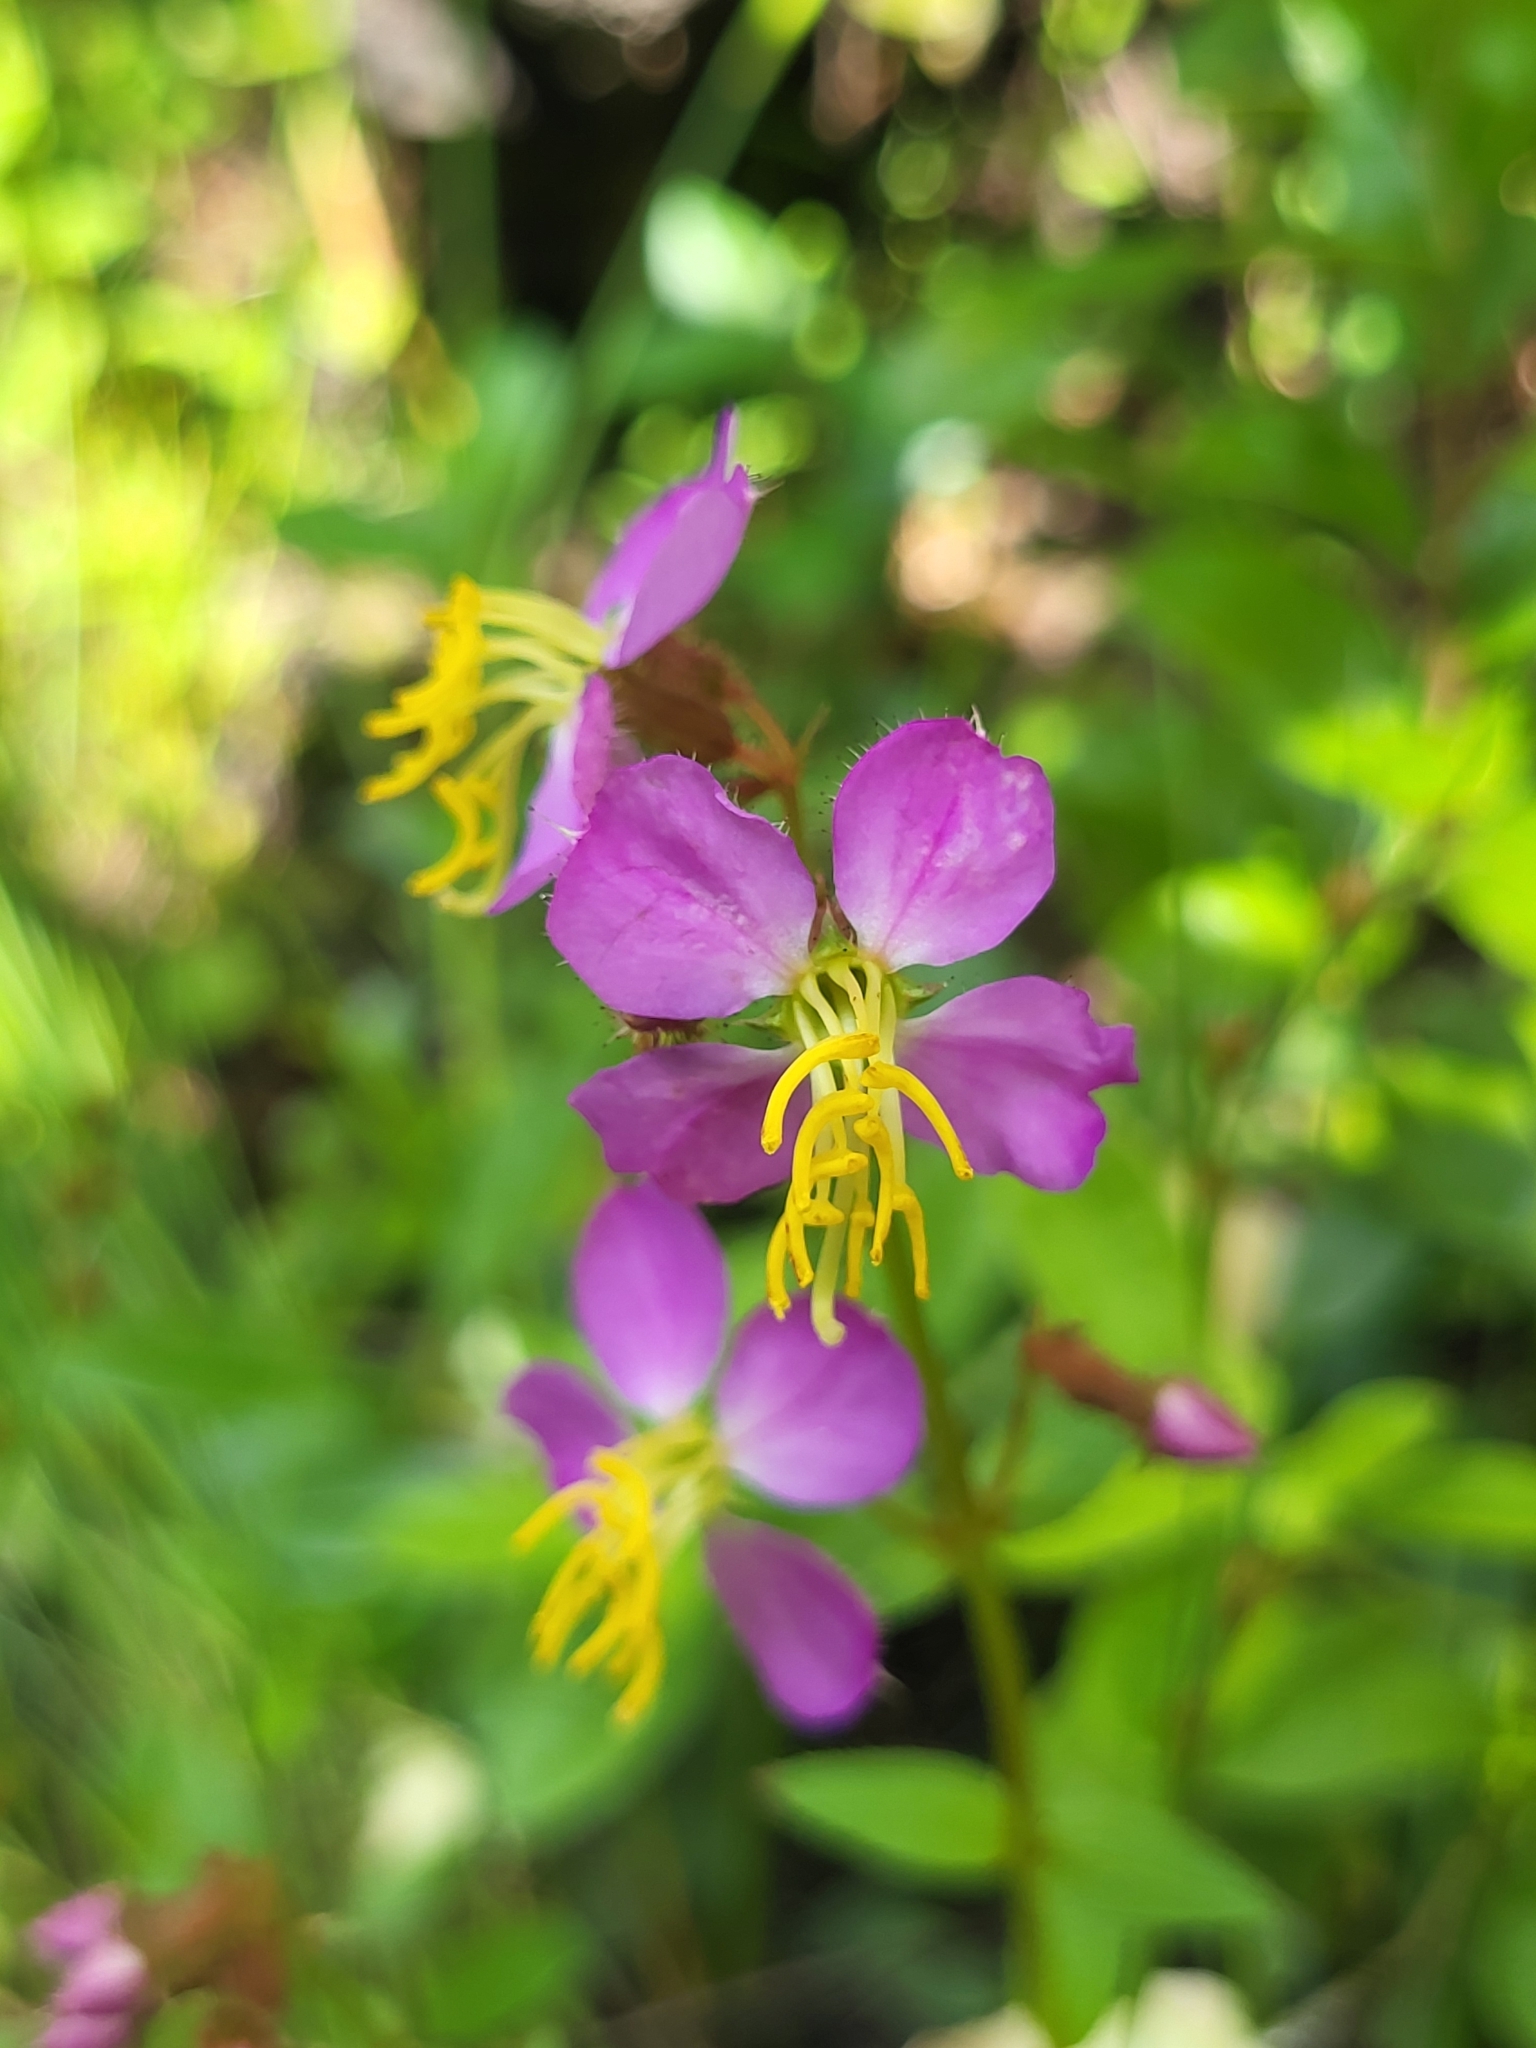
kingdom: Plantae
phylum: Tracheophyta
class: Magnoliopsida
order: Myrtales
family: Melastomataceae
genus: Rhexia
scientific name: Rhexia virginica
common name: Common meadow beauty
